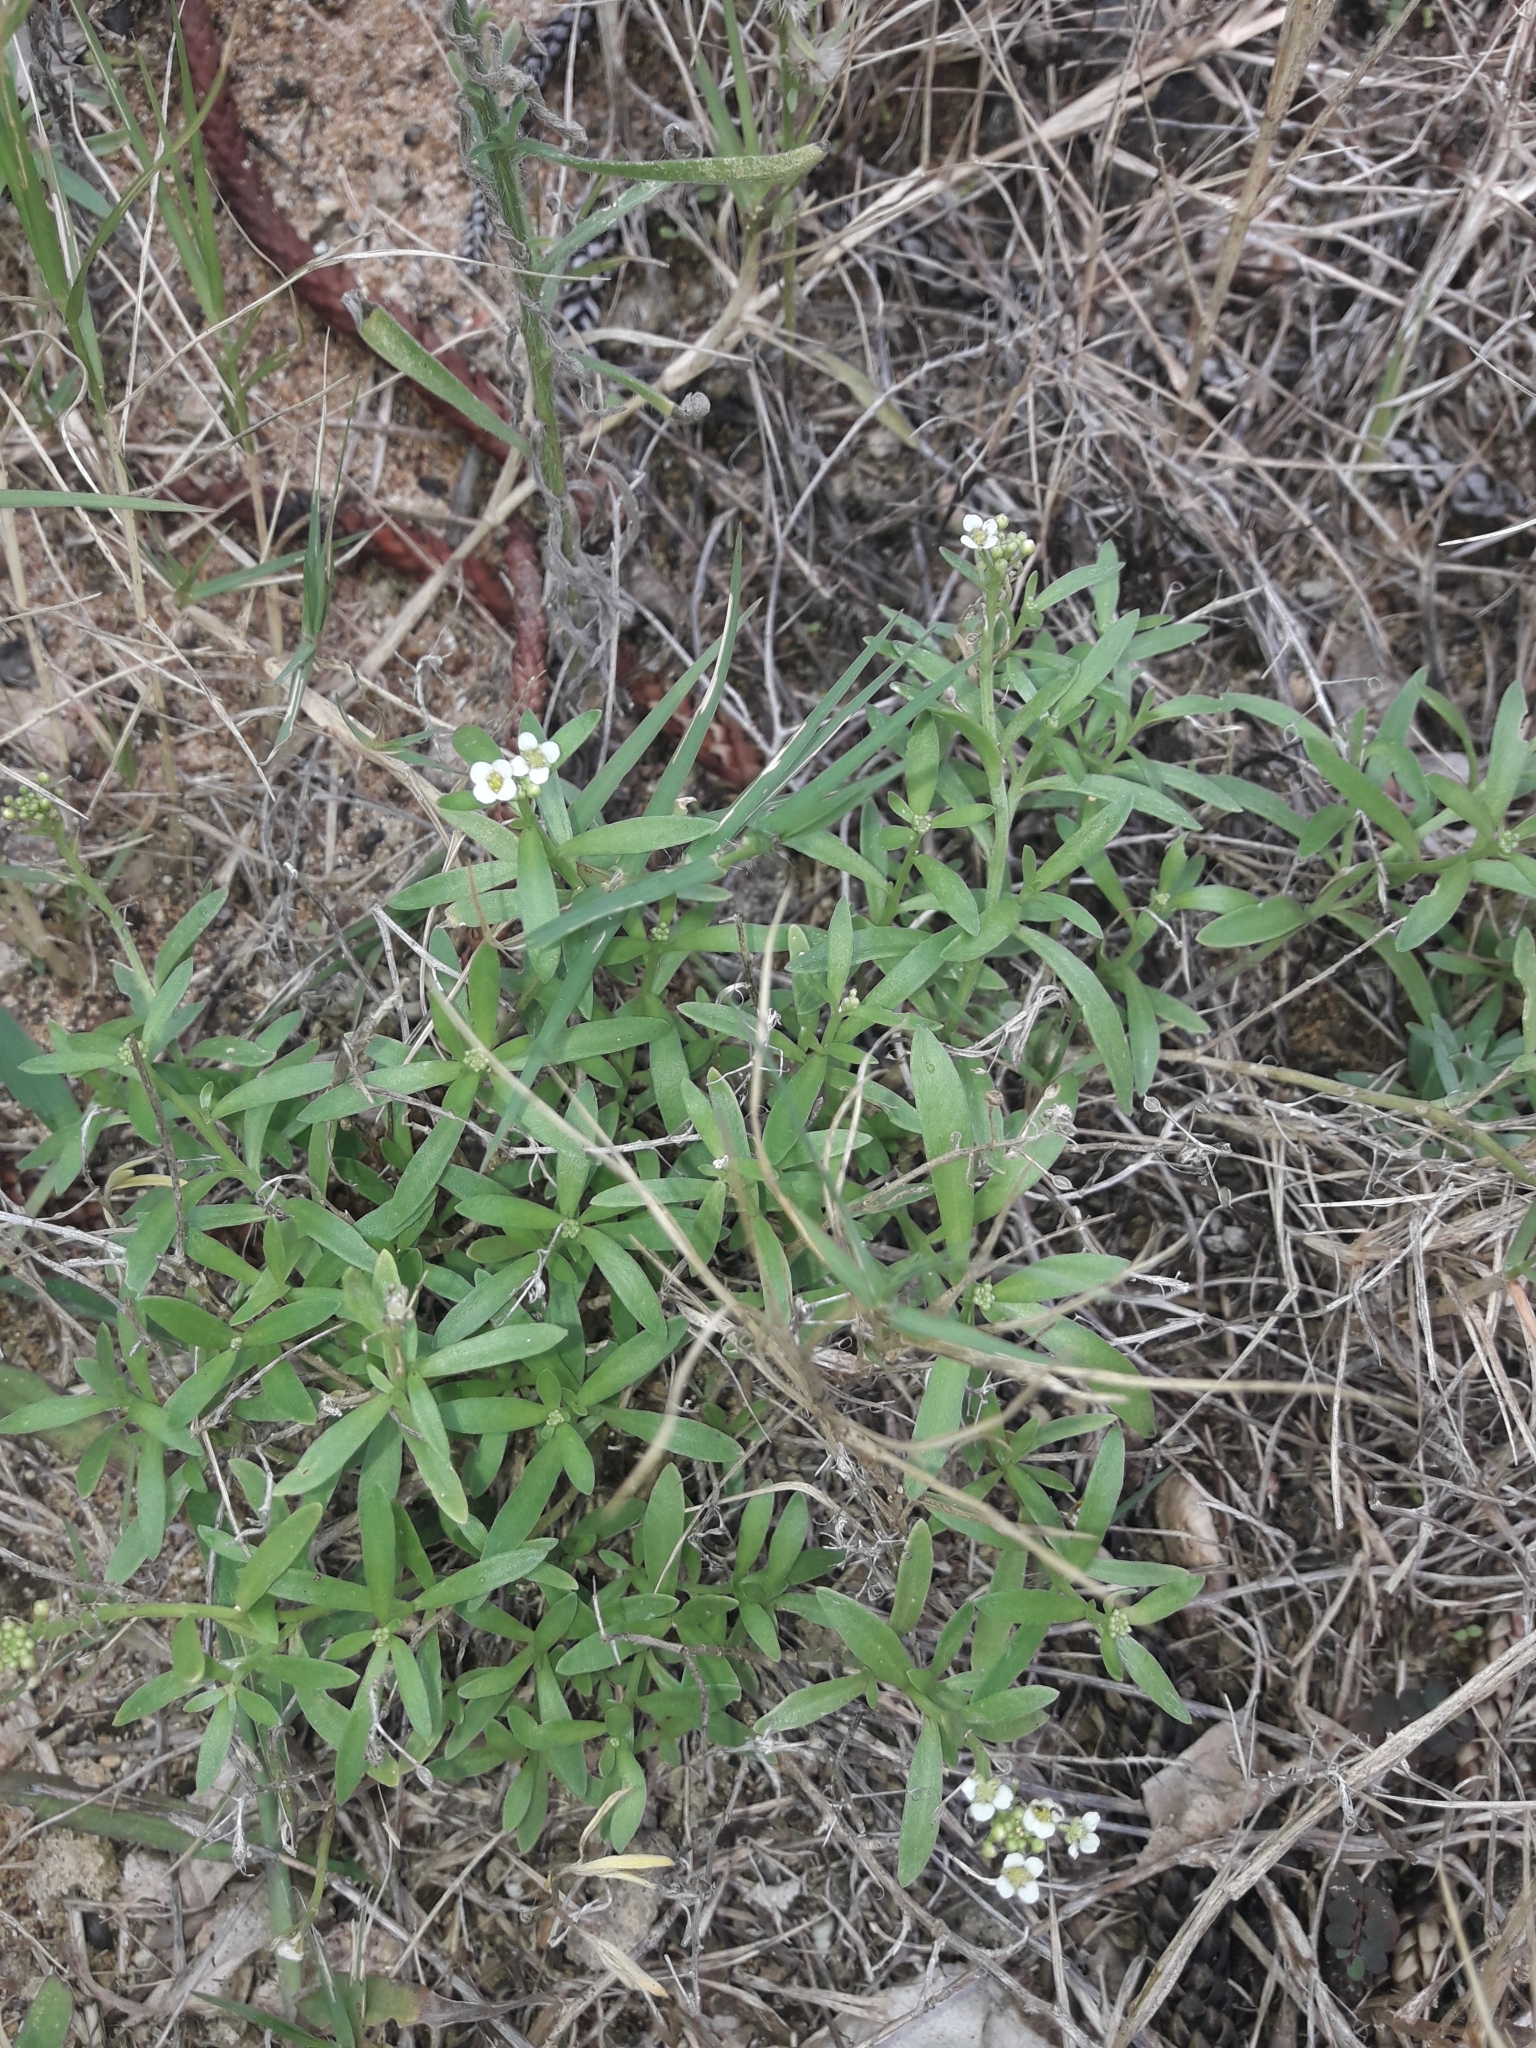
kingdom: Plantae
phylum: Tracheophyta
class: Magnoliopsida
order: Brassicales
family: Brassicaceae
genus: Lobularia
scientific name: Lobularia maritima
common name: Sweet alison
